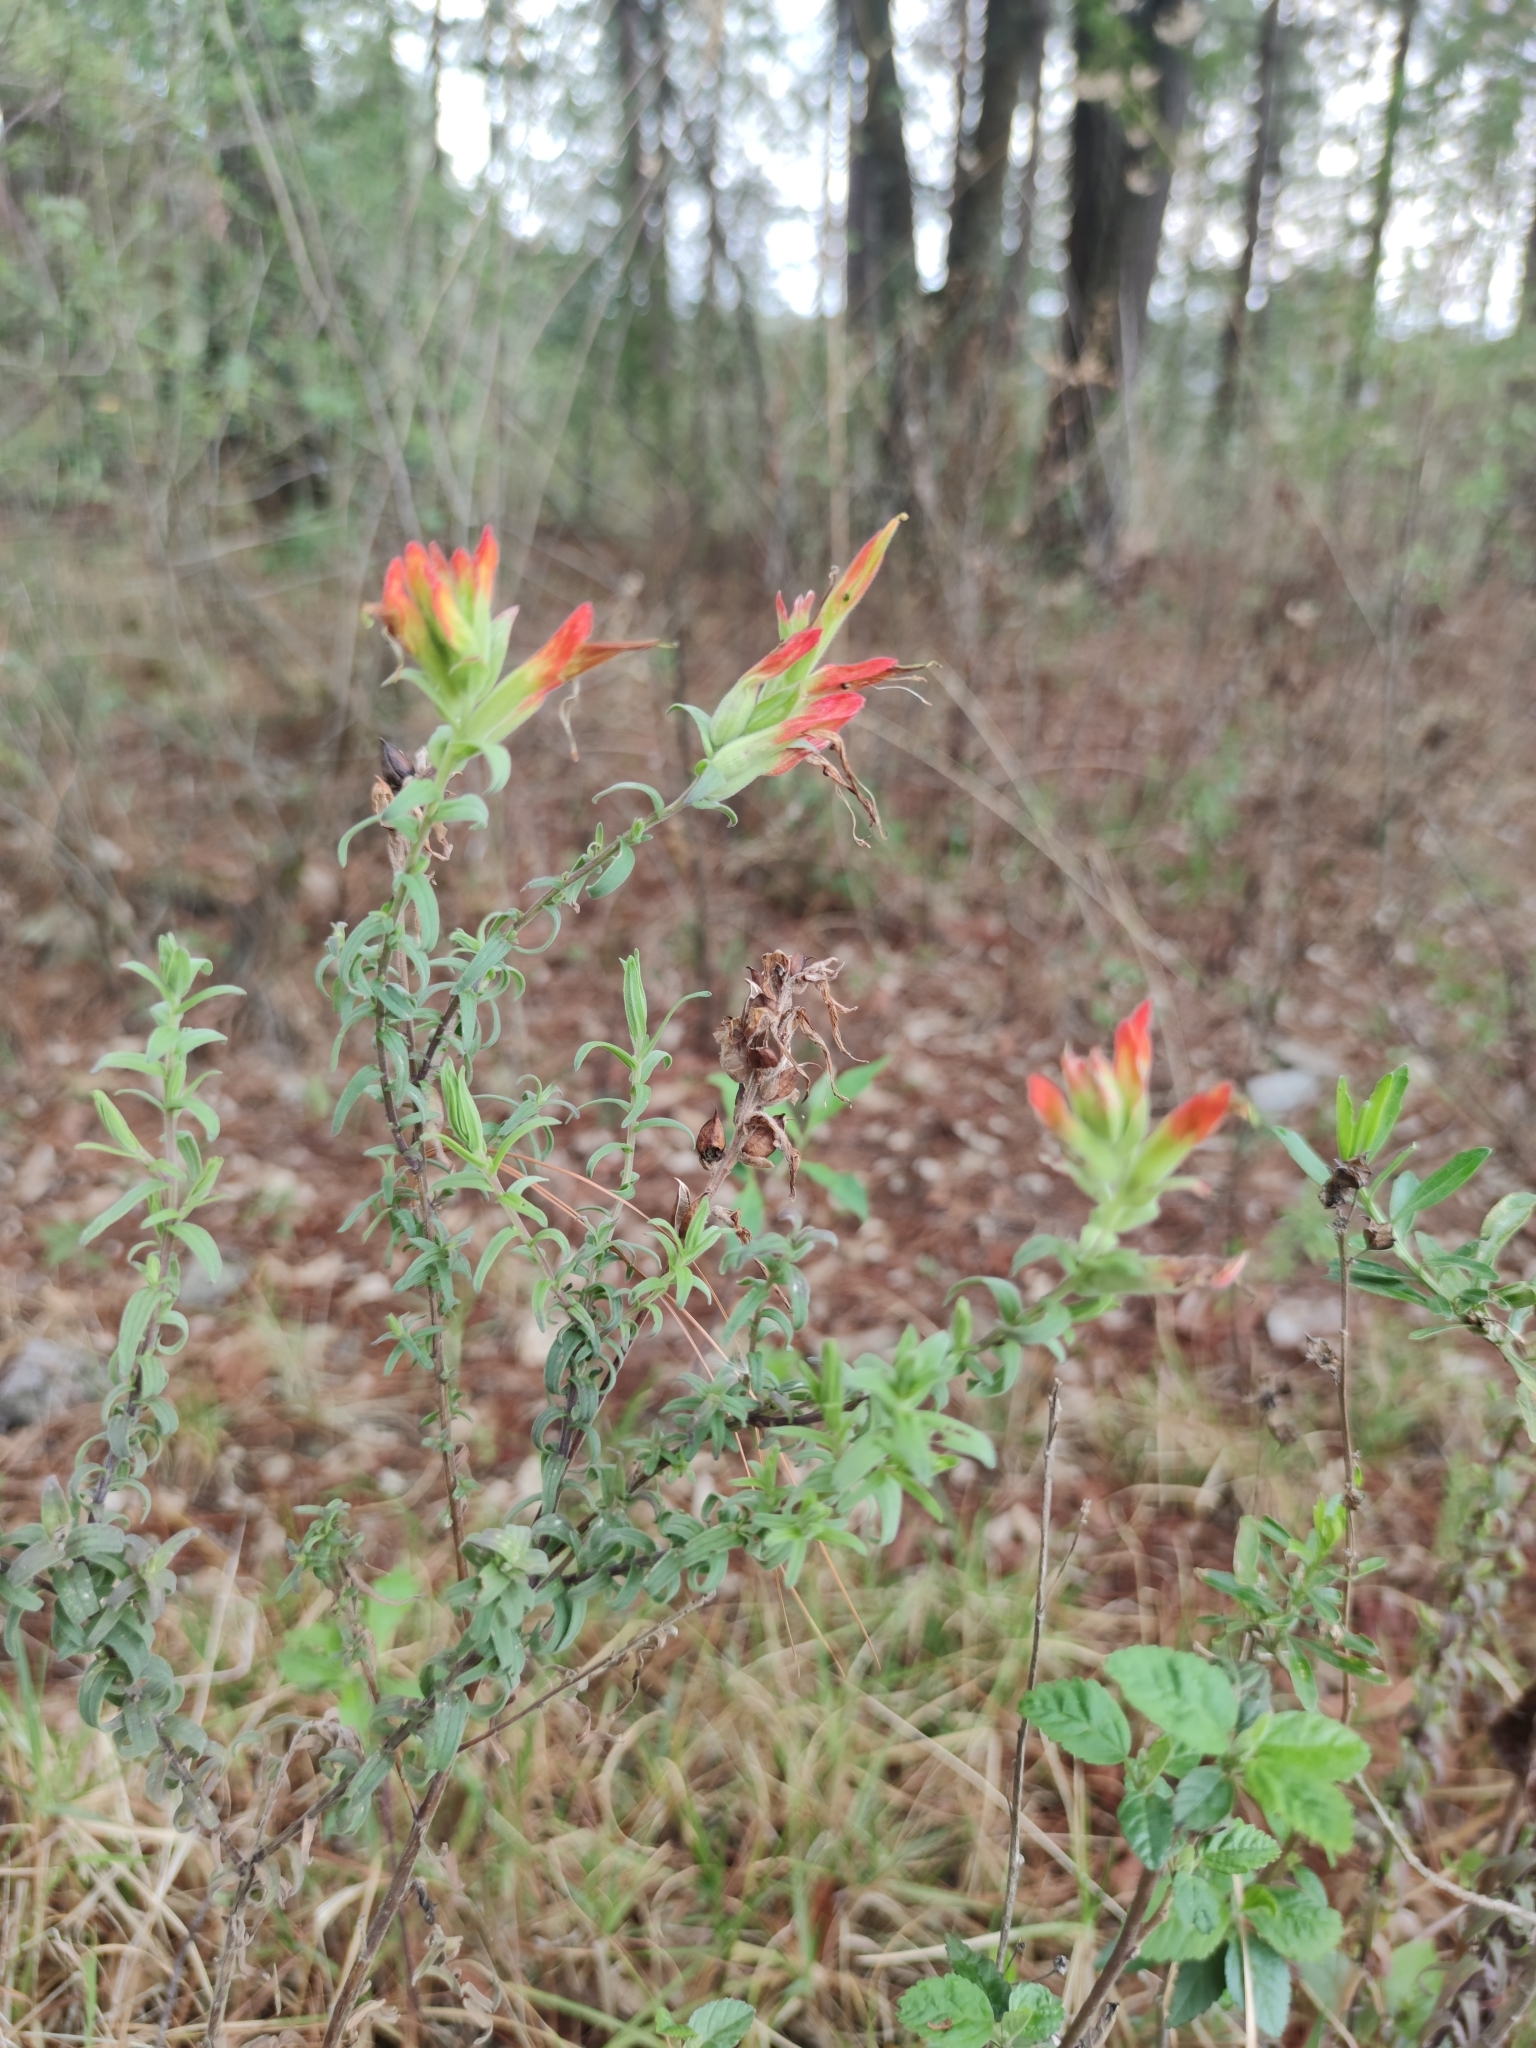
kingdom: Plantae
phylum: Tracheophyta
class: Magnoliopsida
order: Lamiales
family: Orobanchaceae
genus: Castilleja
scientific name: Castilleja tenuiflora
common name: Santa catalina indian paintbrush
